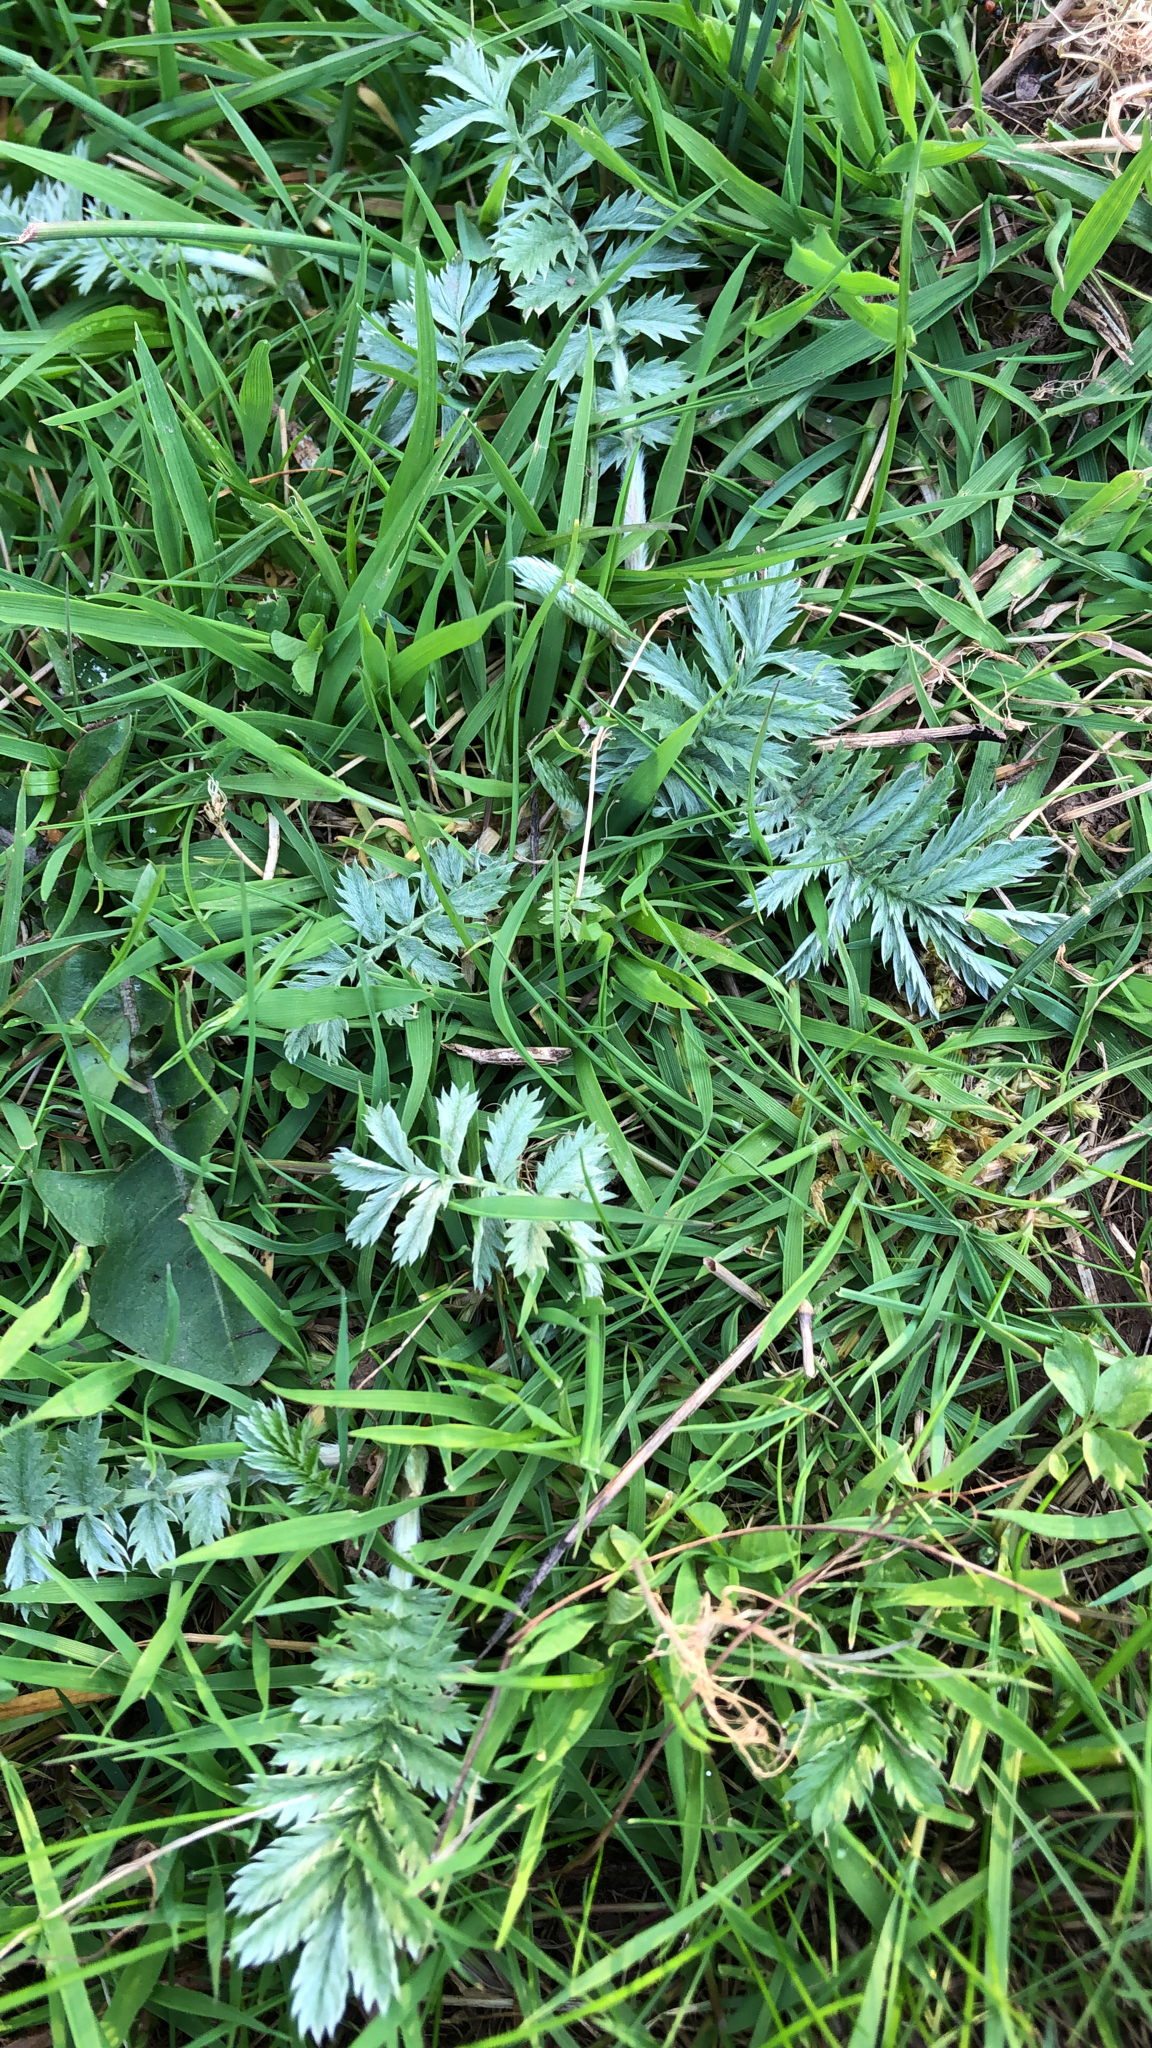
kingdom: Plantae
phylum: Tracheophyta
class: Magnoliopsida
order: Rosales
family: Rosaceae
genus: Argentina
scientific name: Argentina anserina
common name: Common silverweed
